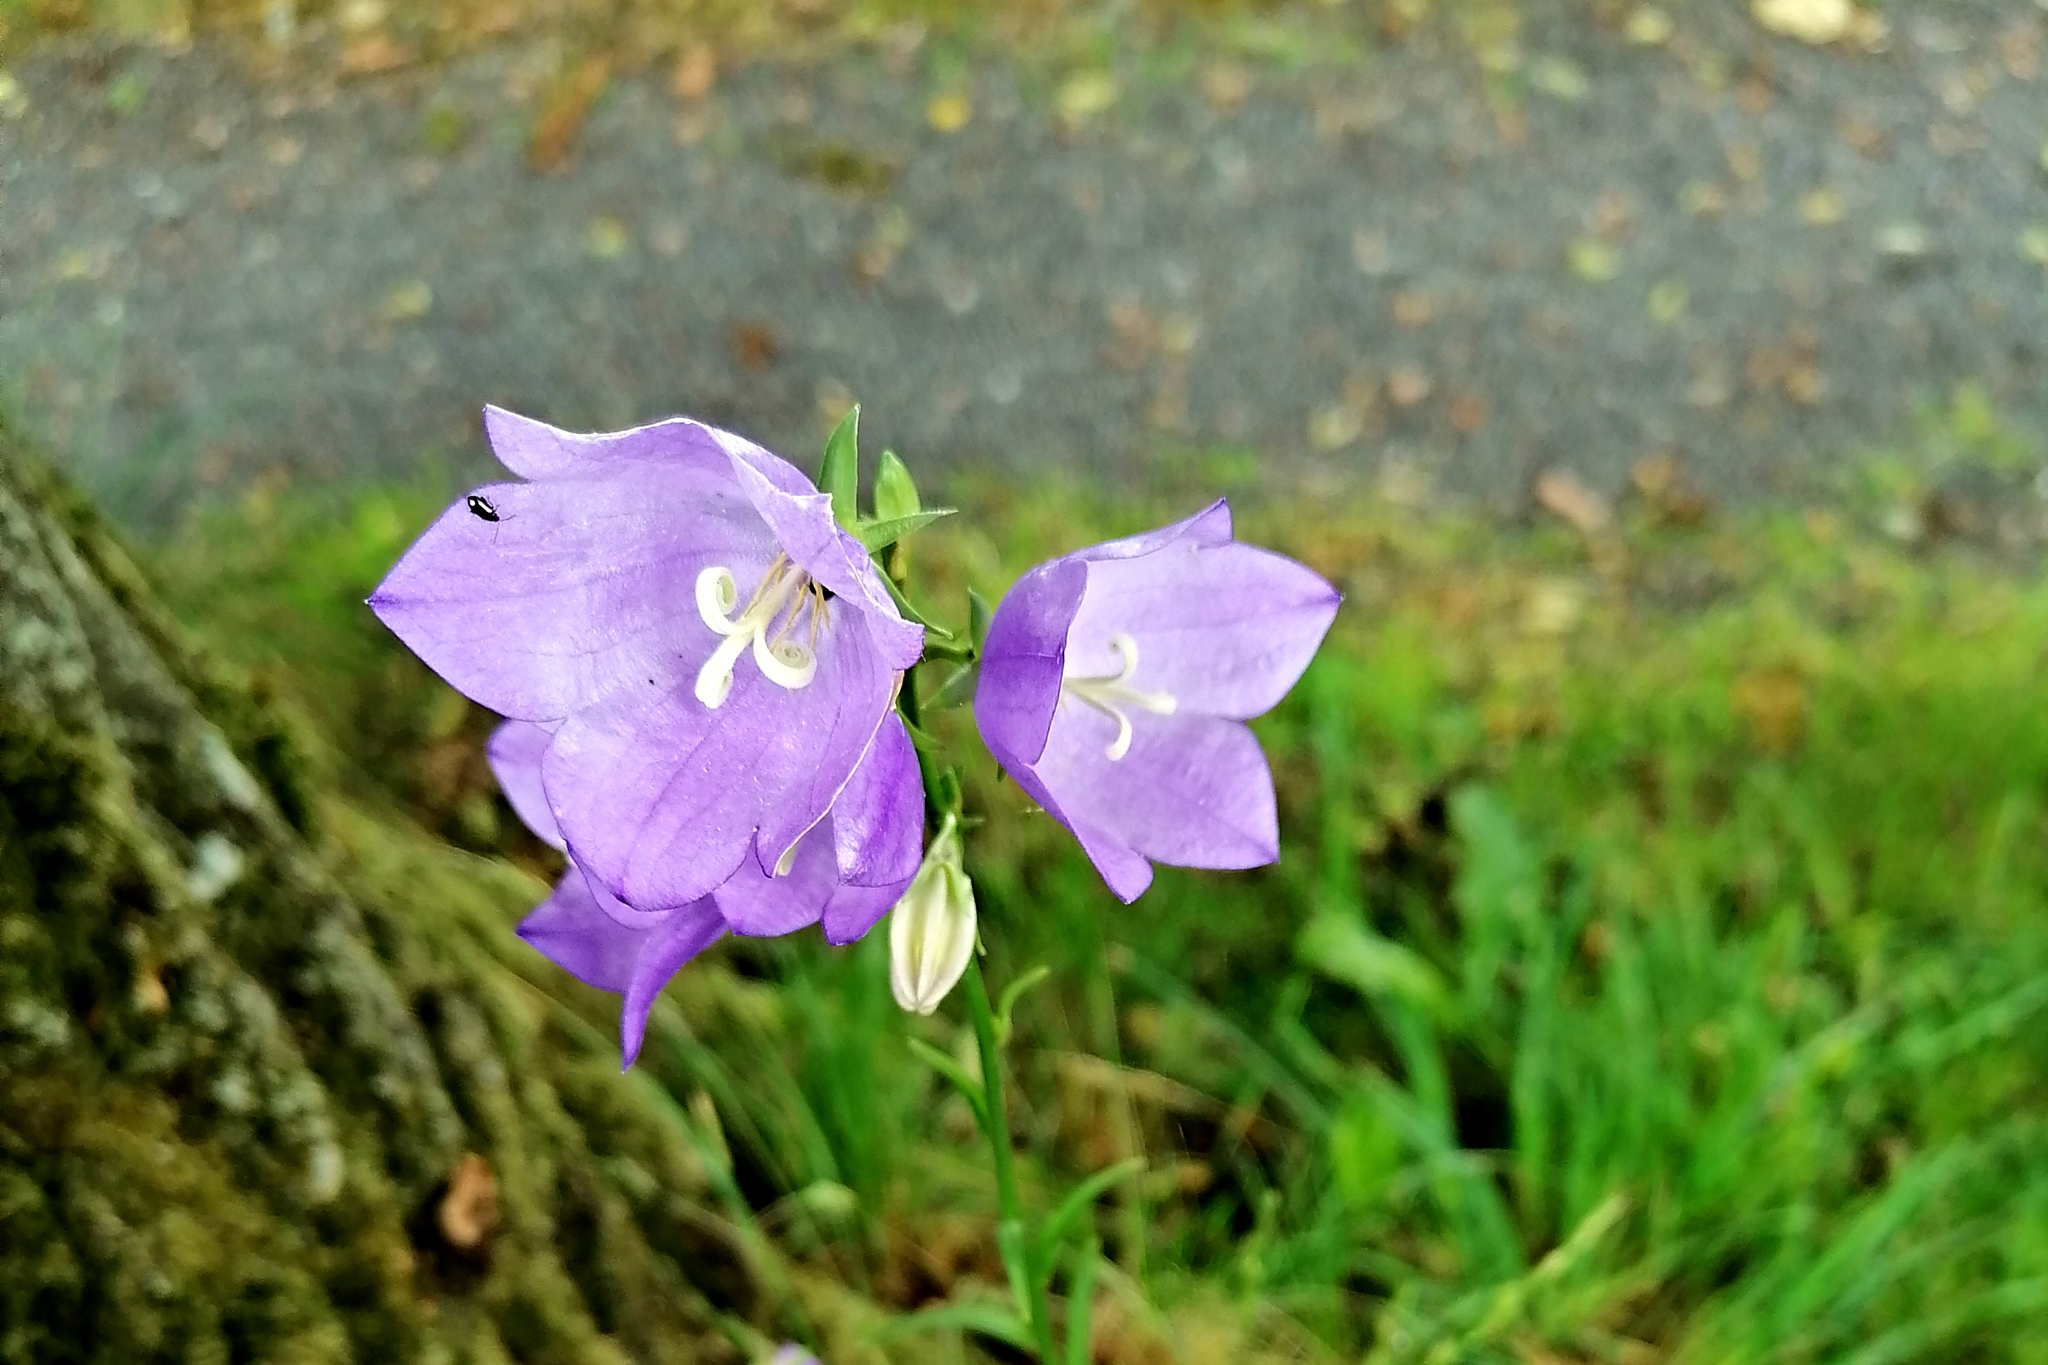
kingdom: Plantae
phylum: Tracheophyta
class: Magnoliopsida
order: Asterales
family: Campanulaceae
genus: Campanula
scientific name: Campanula persicifolia
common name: Peach-leaved bellflower
